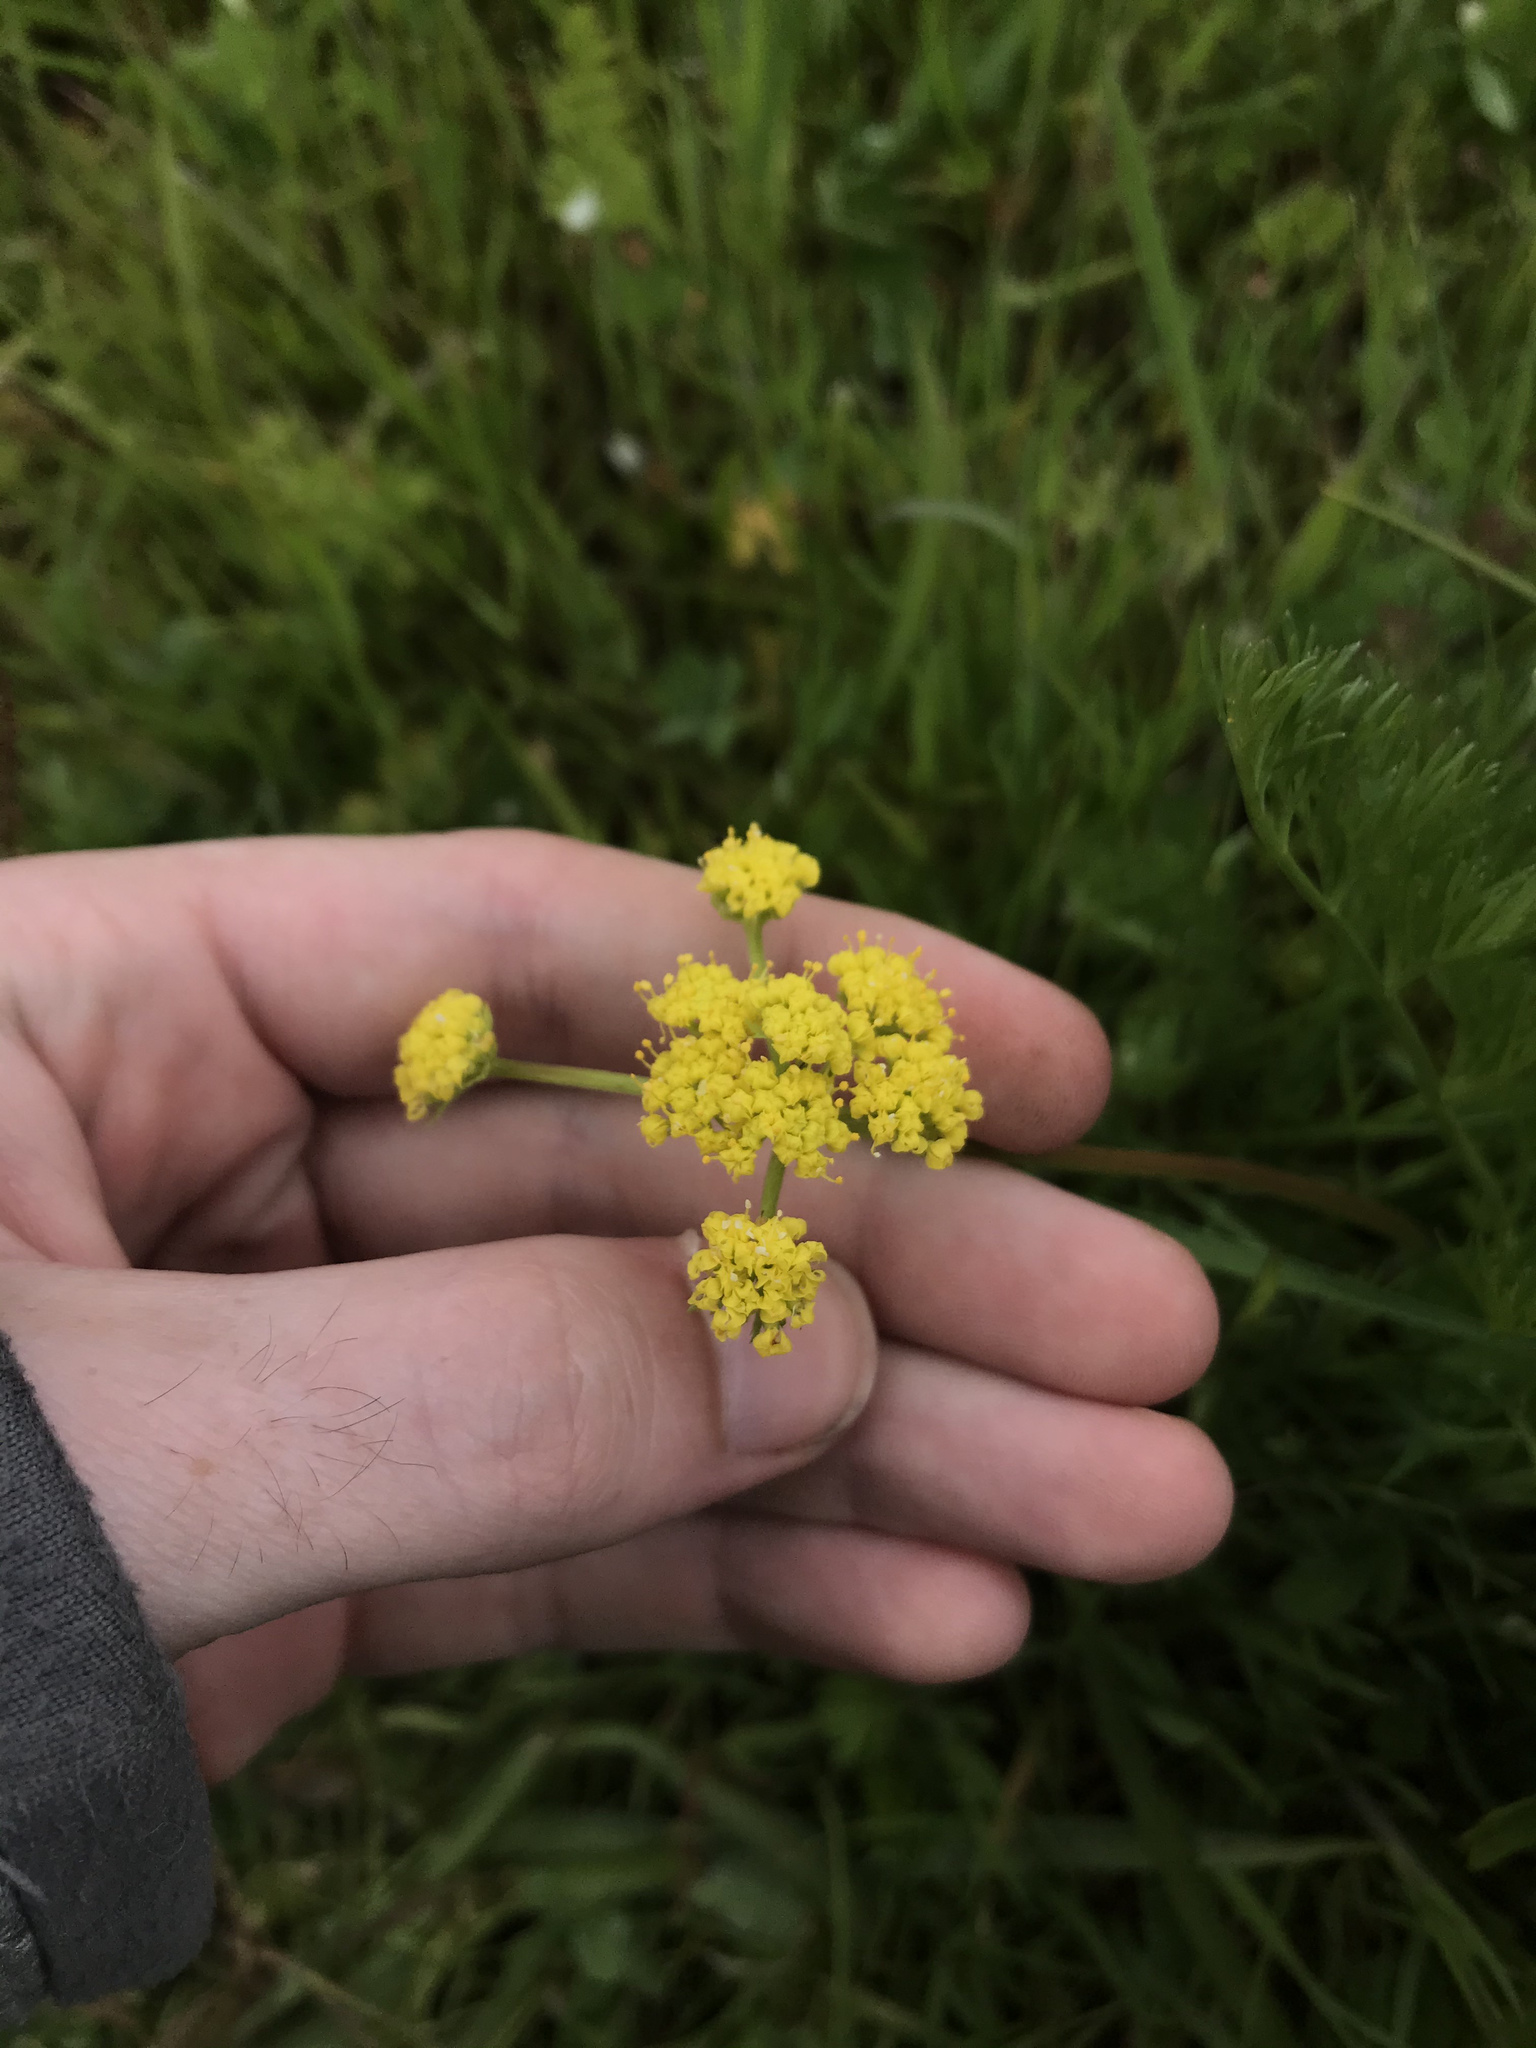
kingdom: Plantae
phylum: Tracheophyta
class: Magnoliopsida
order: Apiales
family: Apiaceae
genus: Lomatium
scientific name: Lomatium bradshawii
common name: Bradshaw's desert-parsley
